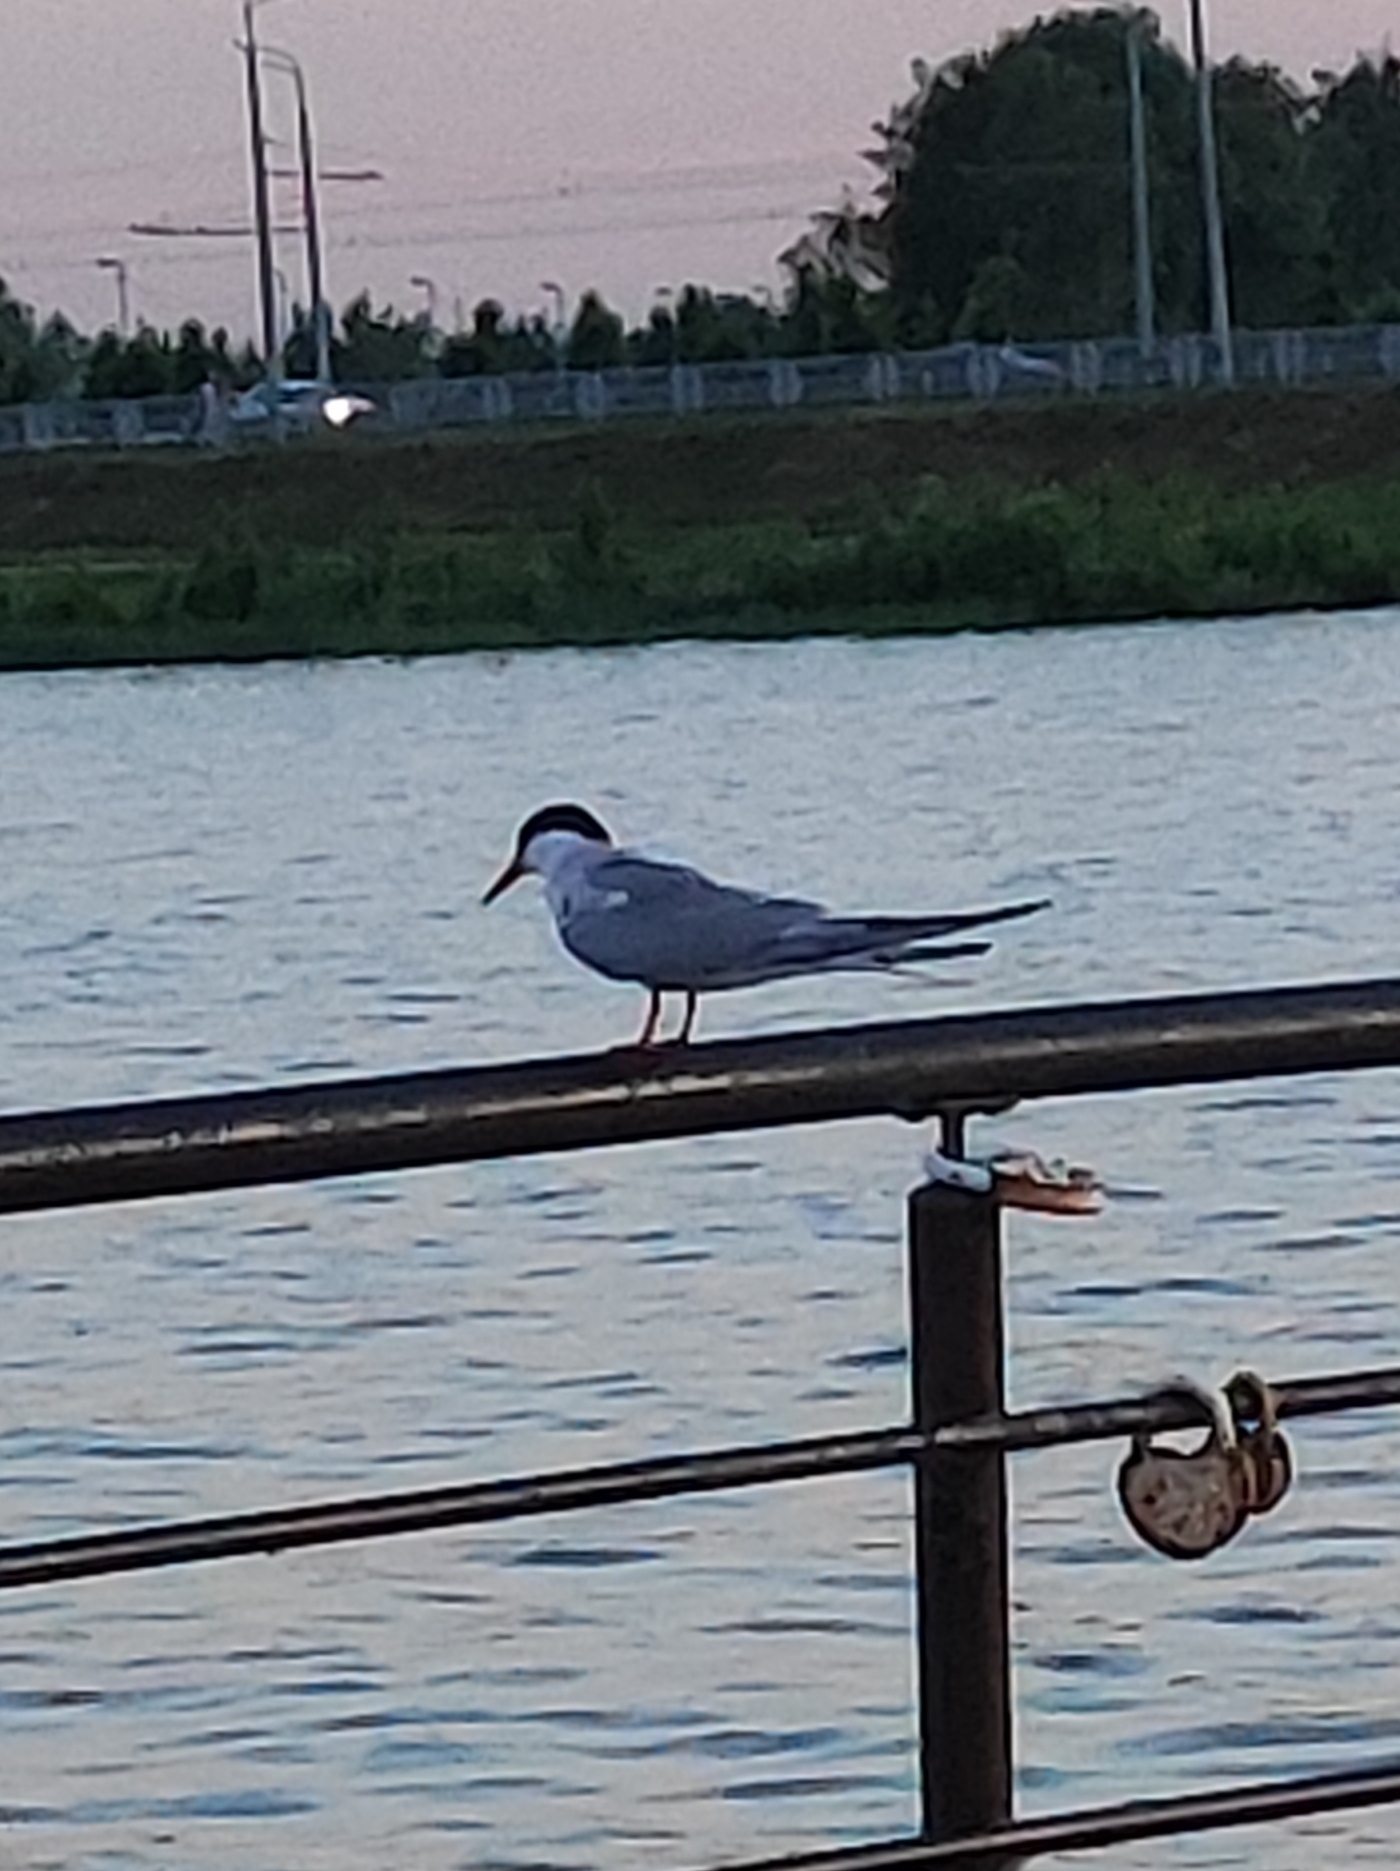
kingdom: Animalia
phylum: Chordata
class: Aves
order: Charadriiformes
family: Laridae
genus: Sterna
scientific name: Sterna hirundo
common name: Common tern
